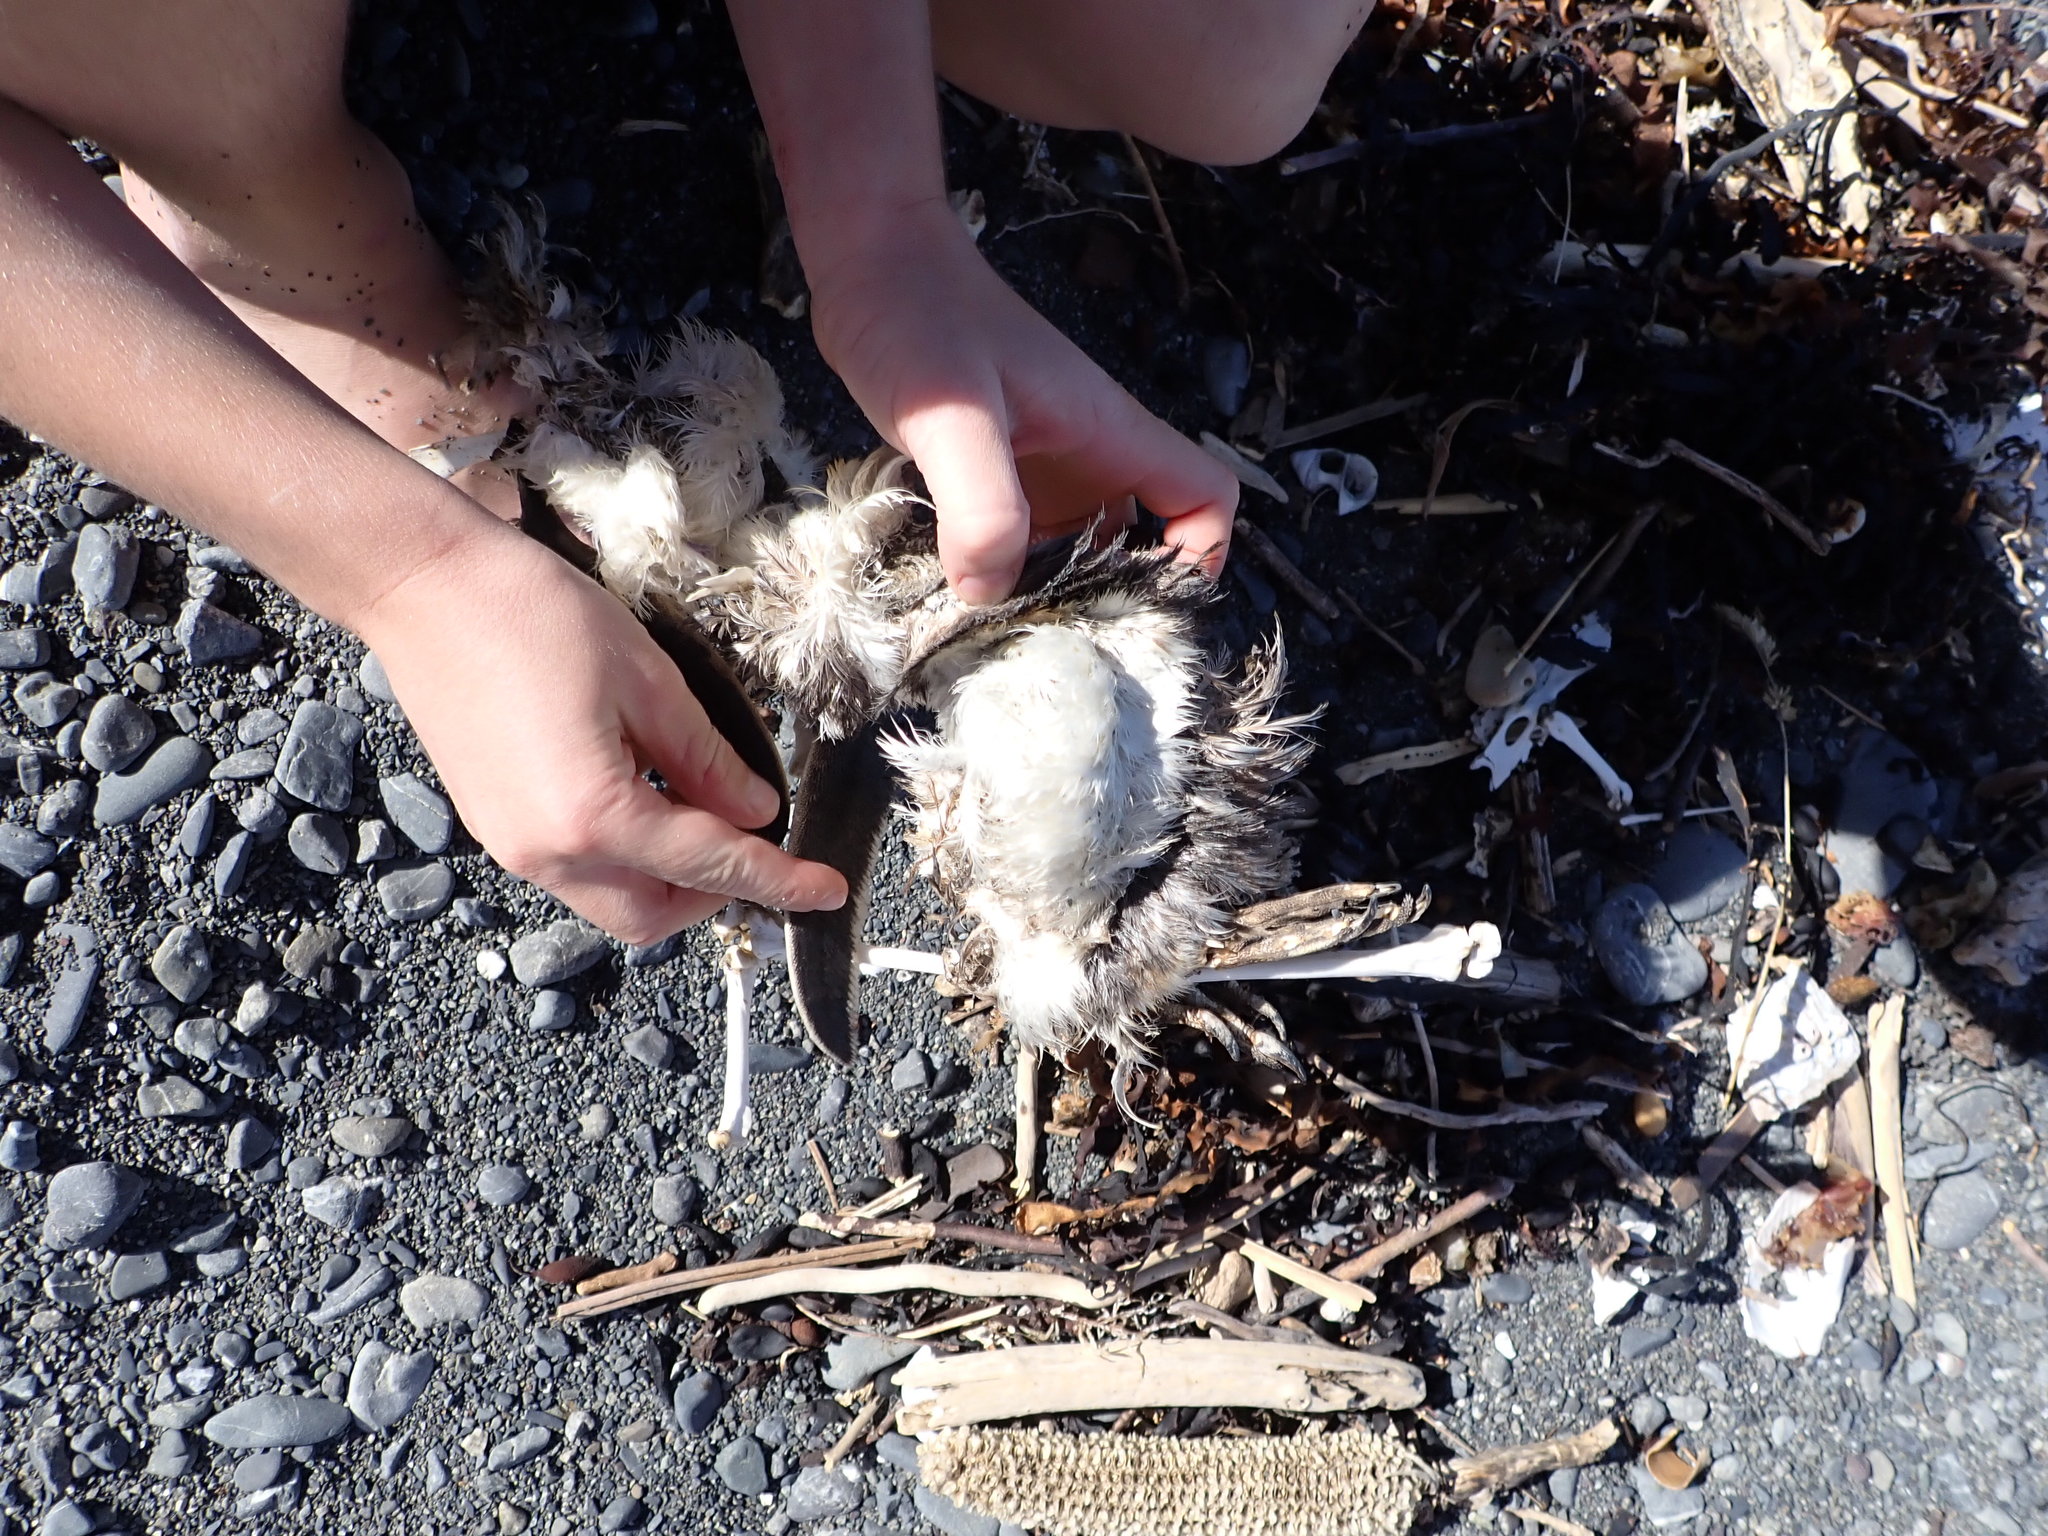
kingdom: Animalia
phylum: Chordata
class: Aves
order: Sphenisciformes
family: Spheniscidae
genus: Eudyptula
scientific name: Eudyptula minor
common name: Little penguin
